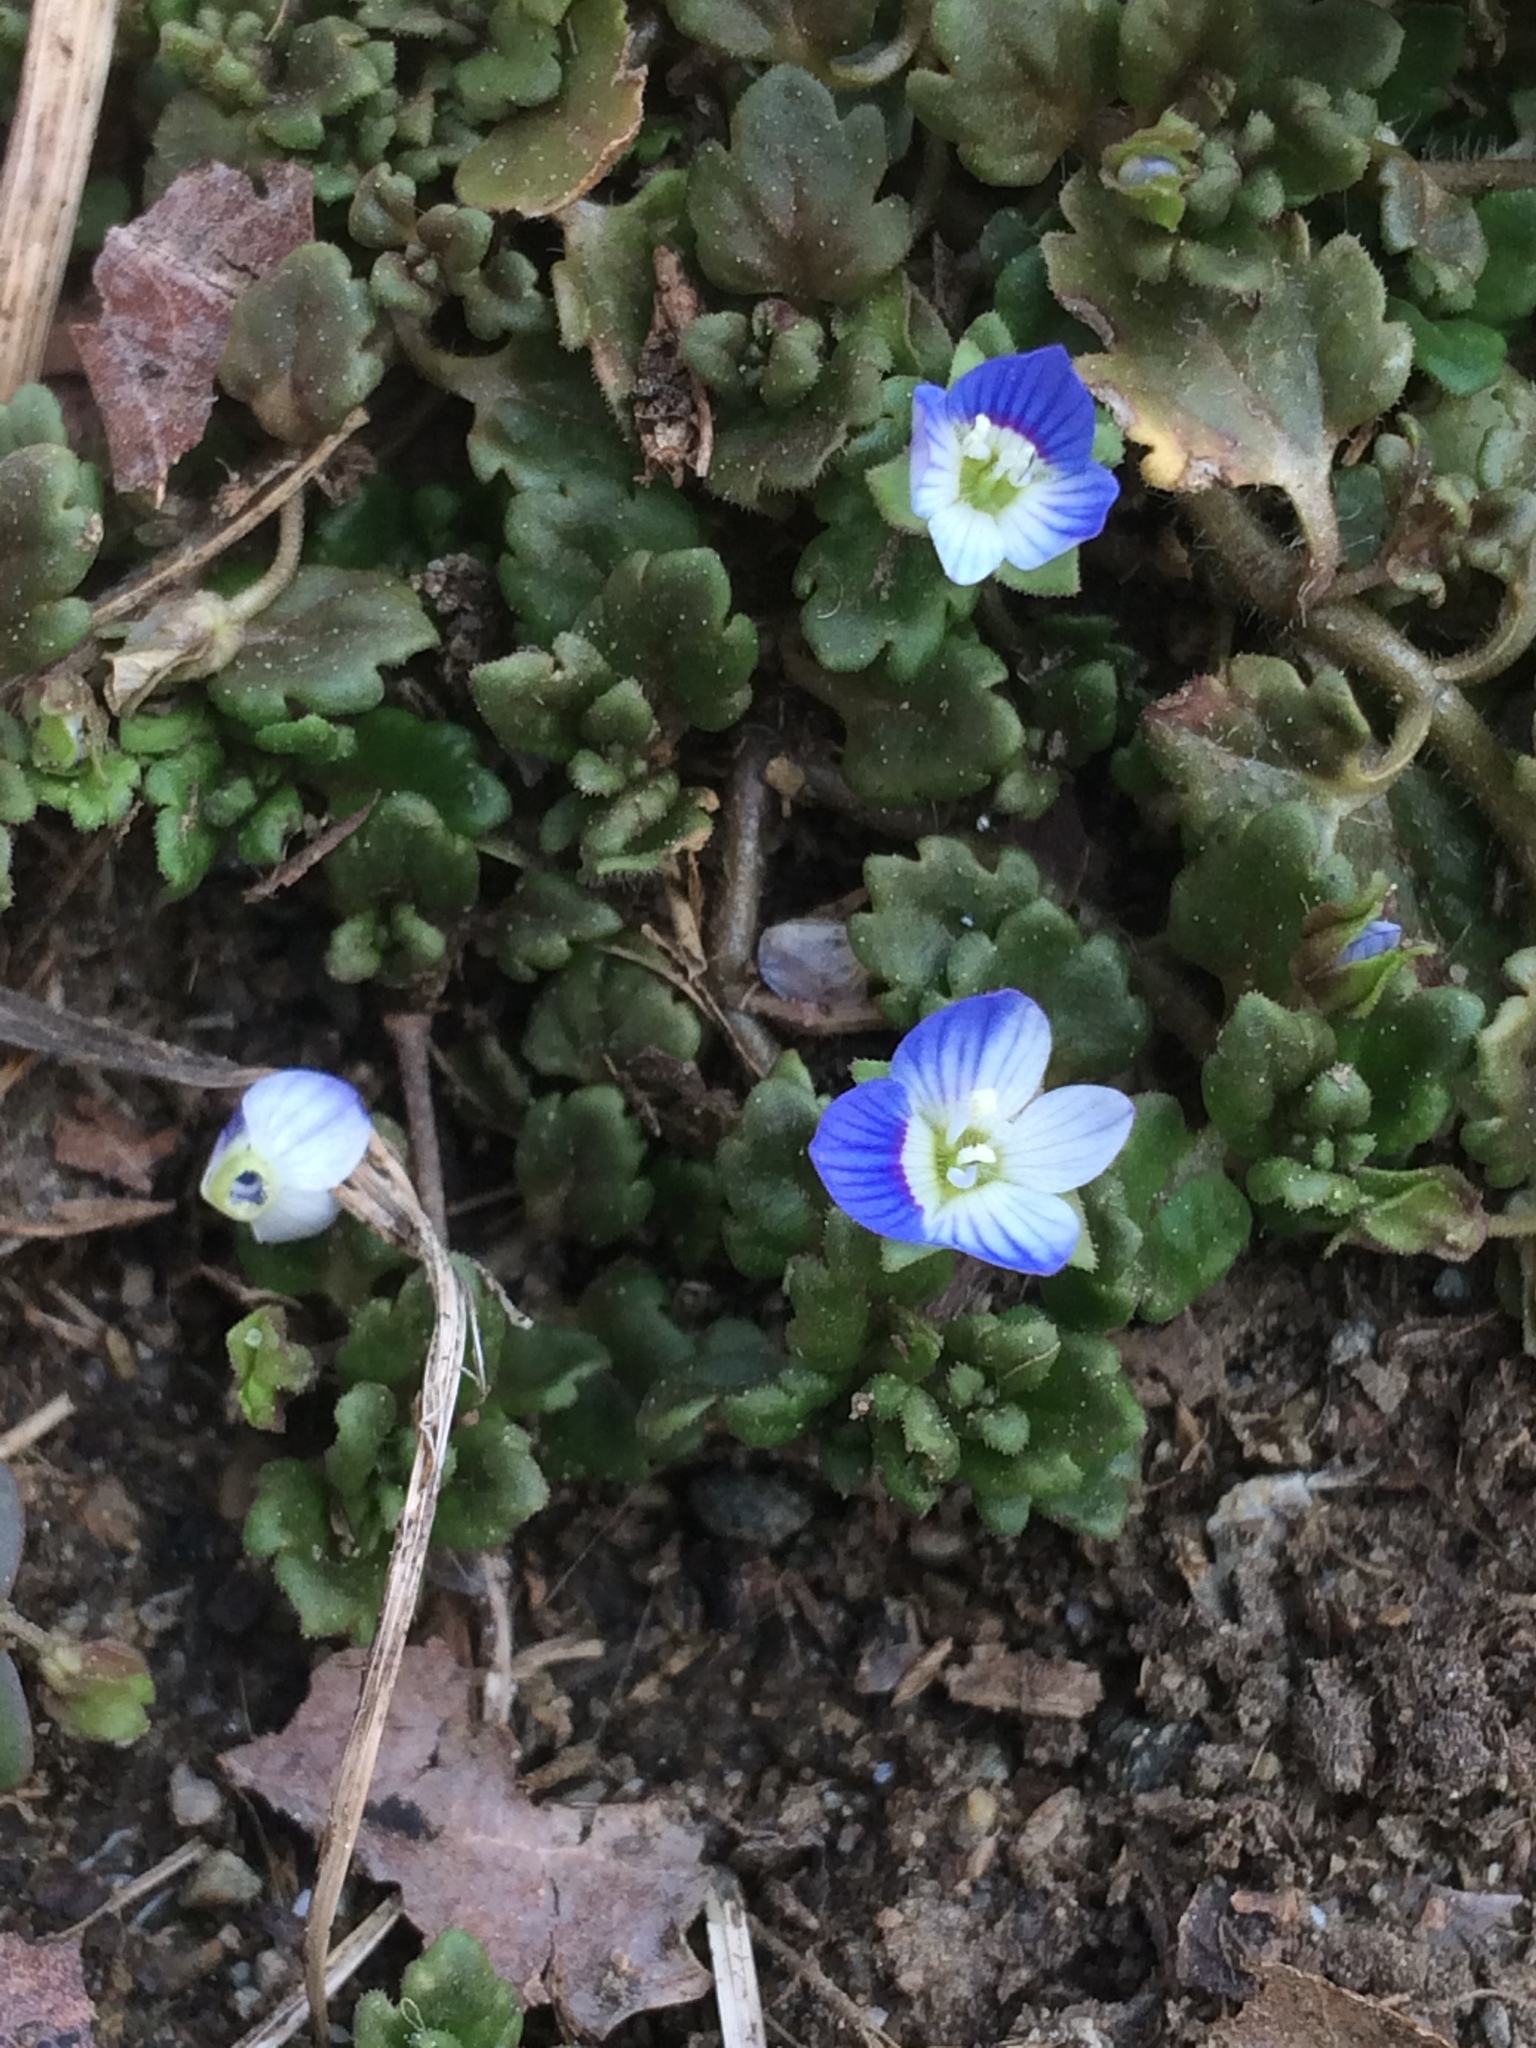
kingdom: Plantae
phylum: Tracheophyta
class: Magnoliopsida
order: Lamiales
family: Plantaginaceae
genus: Veronica
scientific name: Veronica persica
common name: Common field-speedwell
